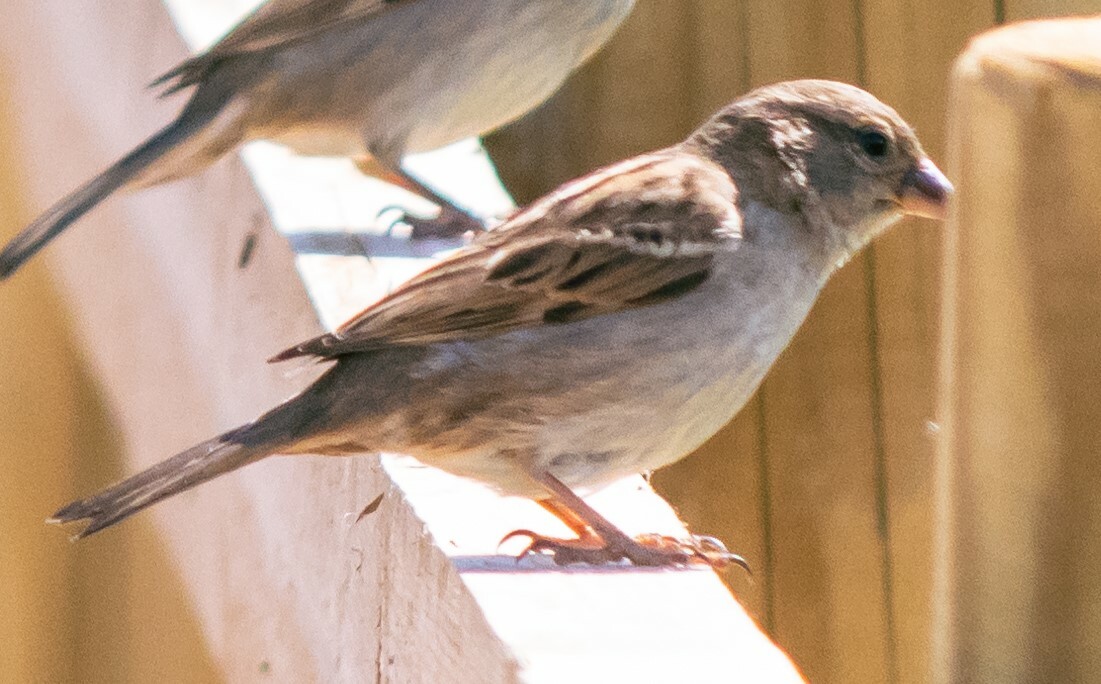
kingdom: Animalia
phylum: Chordata
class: Aves
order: Passeriformes
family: Passeridae
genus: Passer
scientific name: Passer domesticus
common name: House sparrow
